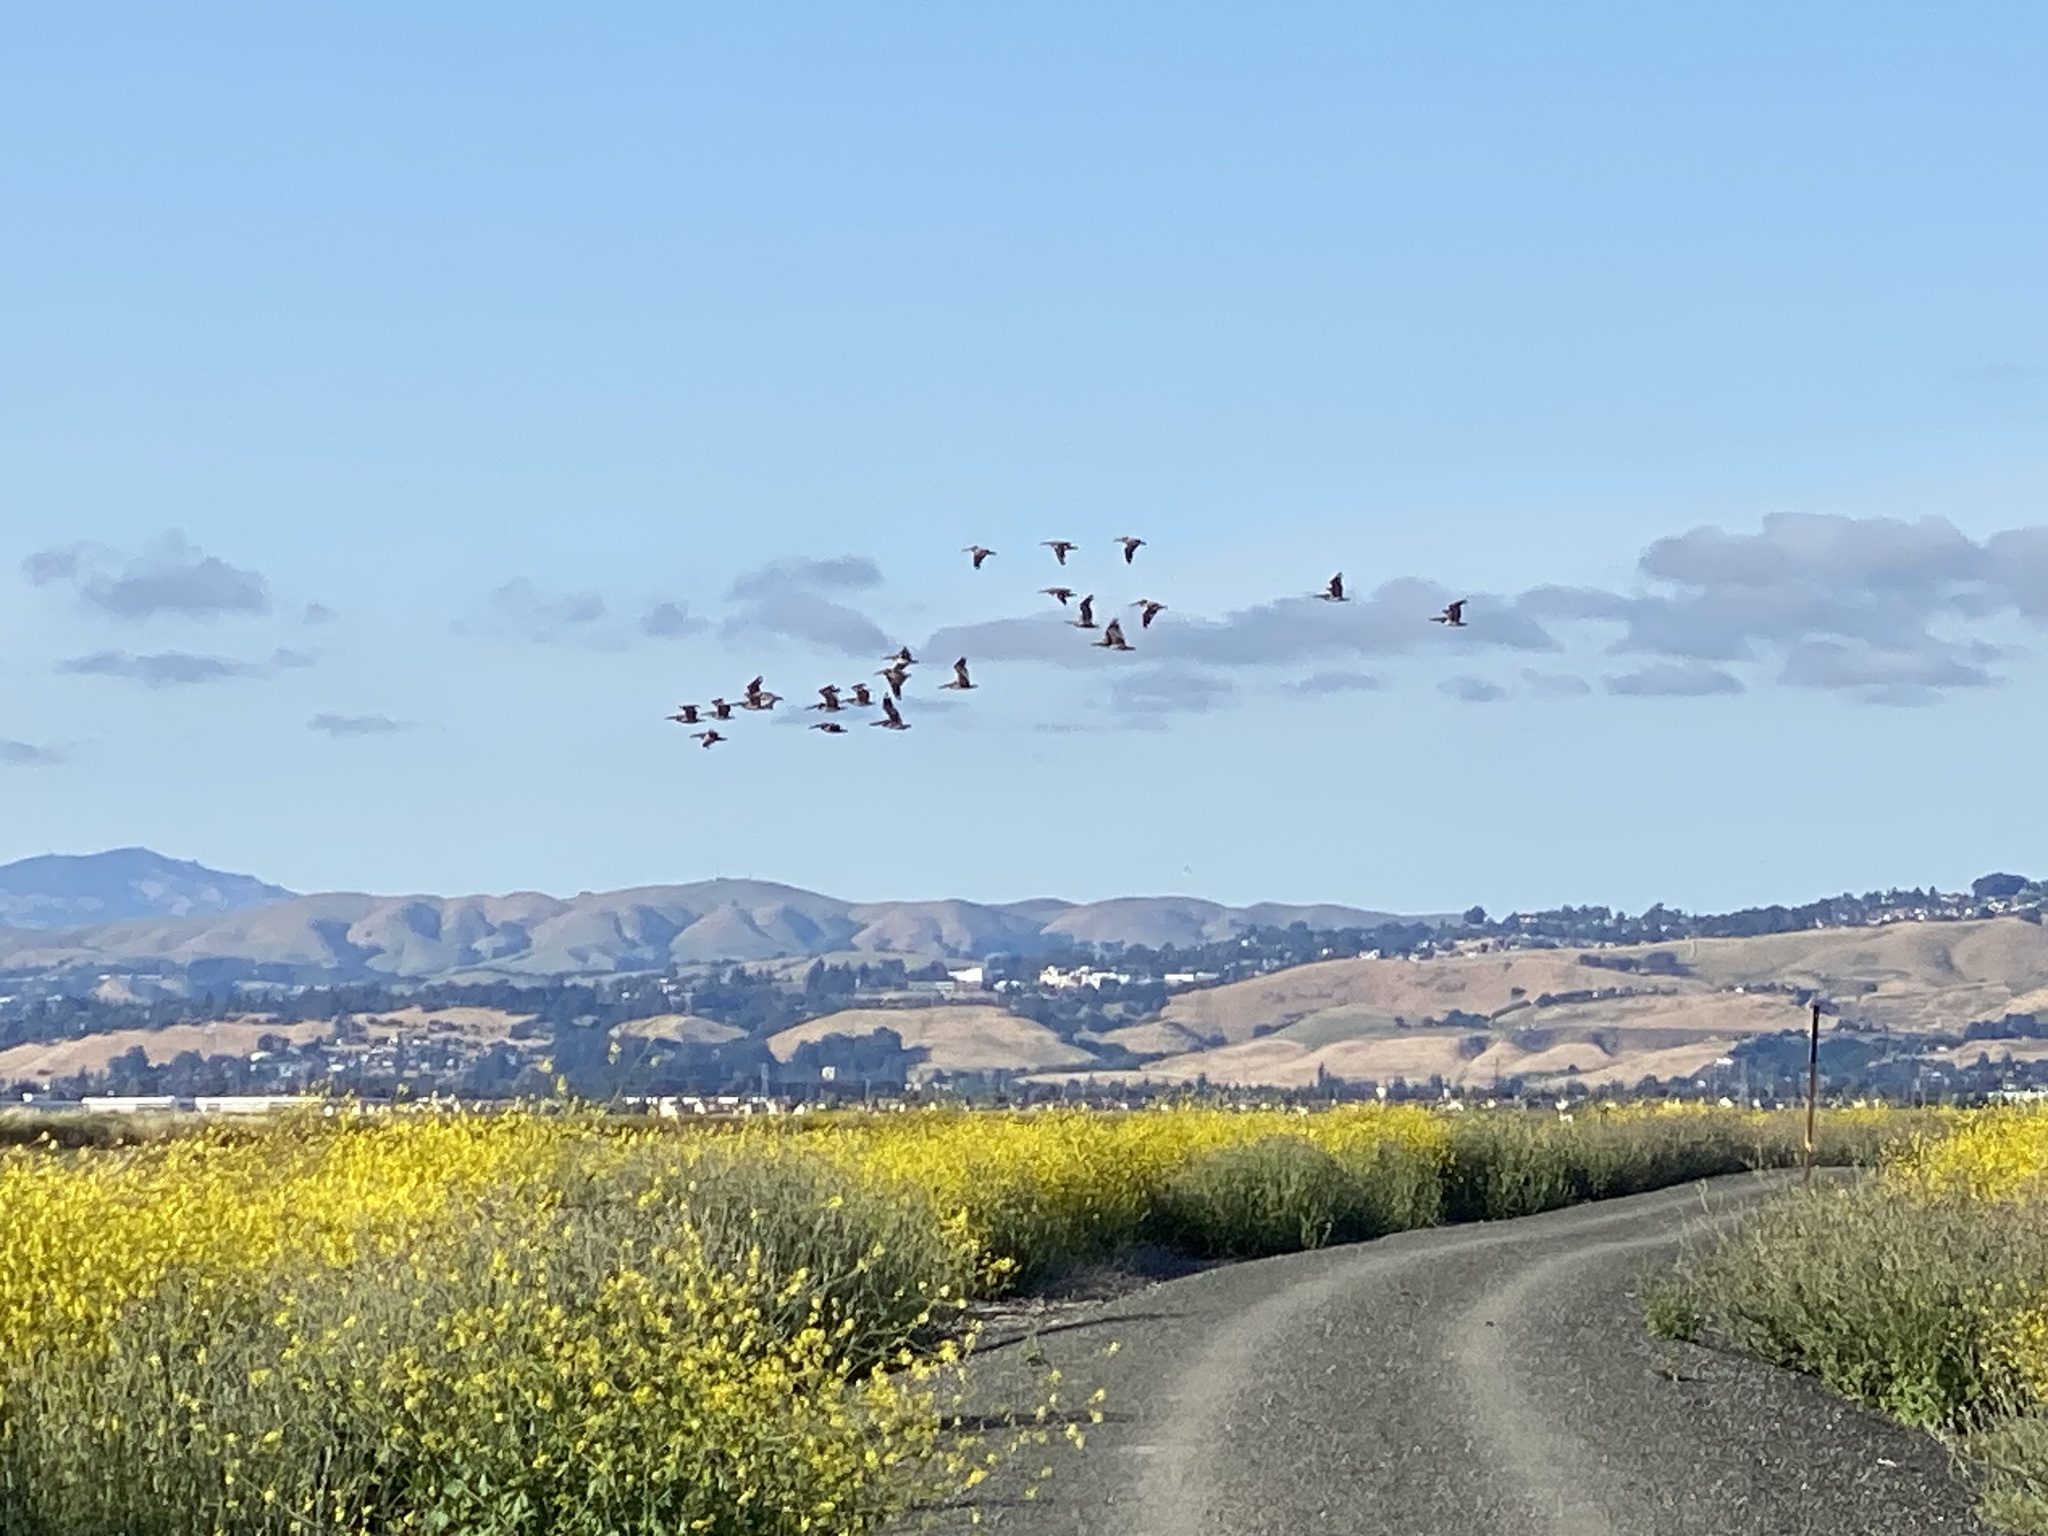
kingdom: Animalia
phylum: Chordata
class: Aves
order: Pelecaniformes
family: Pelecanidae
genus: Pelecanus
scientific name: Pelecanus occidentalis
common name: Brown pelican
